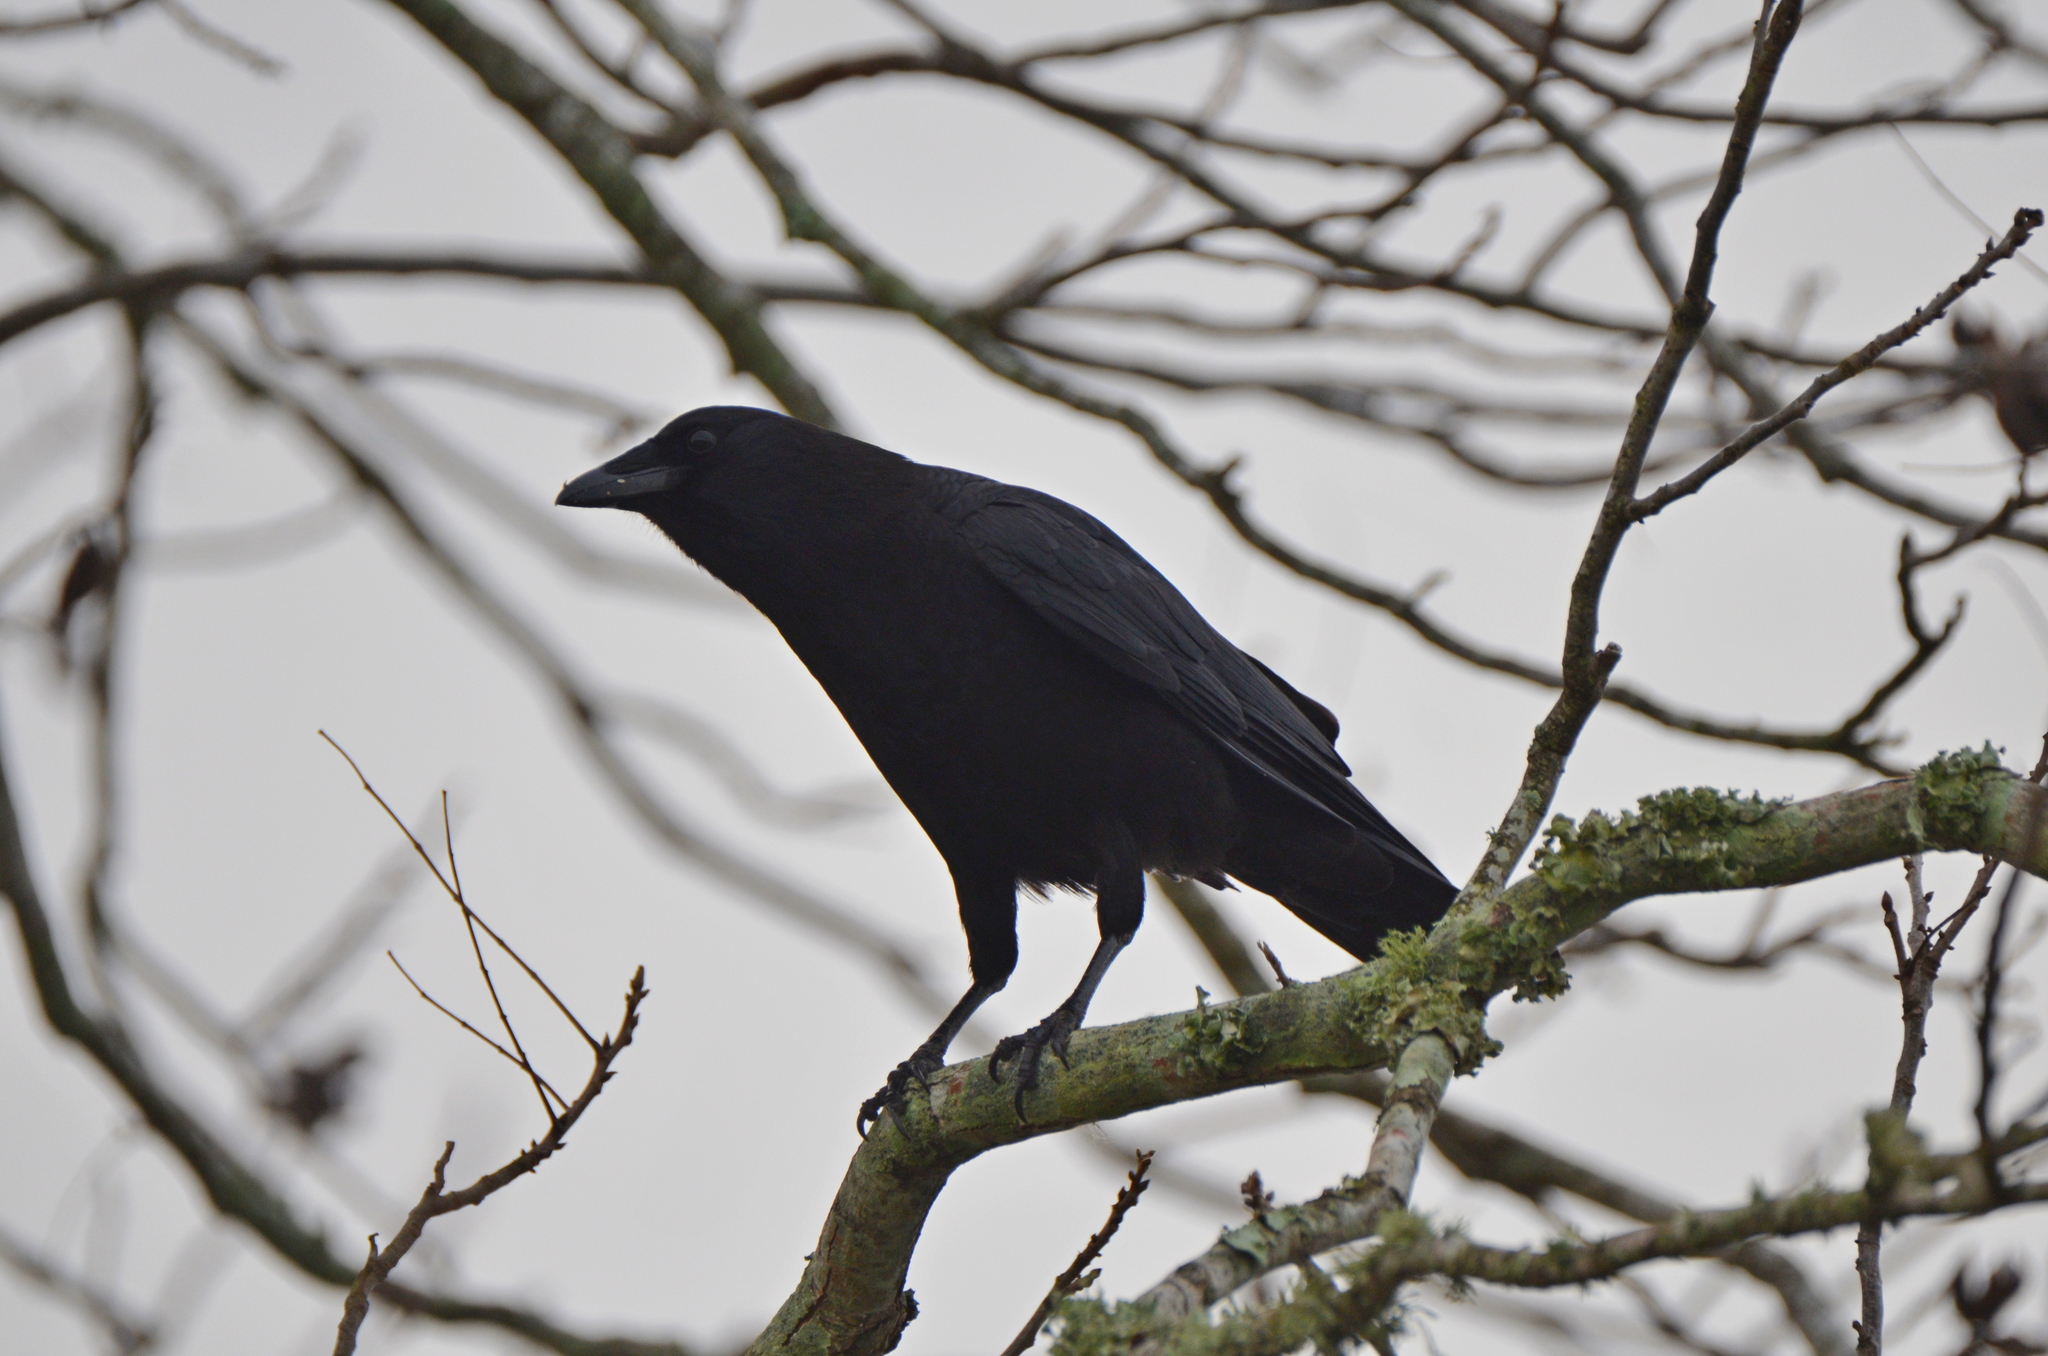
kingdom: Animalia
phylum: Chordata
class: Aves
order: Passeriformes
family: Corvidae
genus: Corvus
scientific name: Corvus brachyrhynchos
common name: American crow
